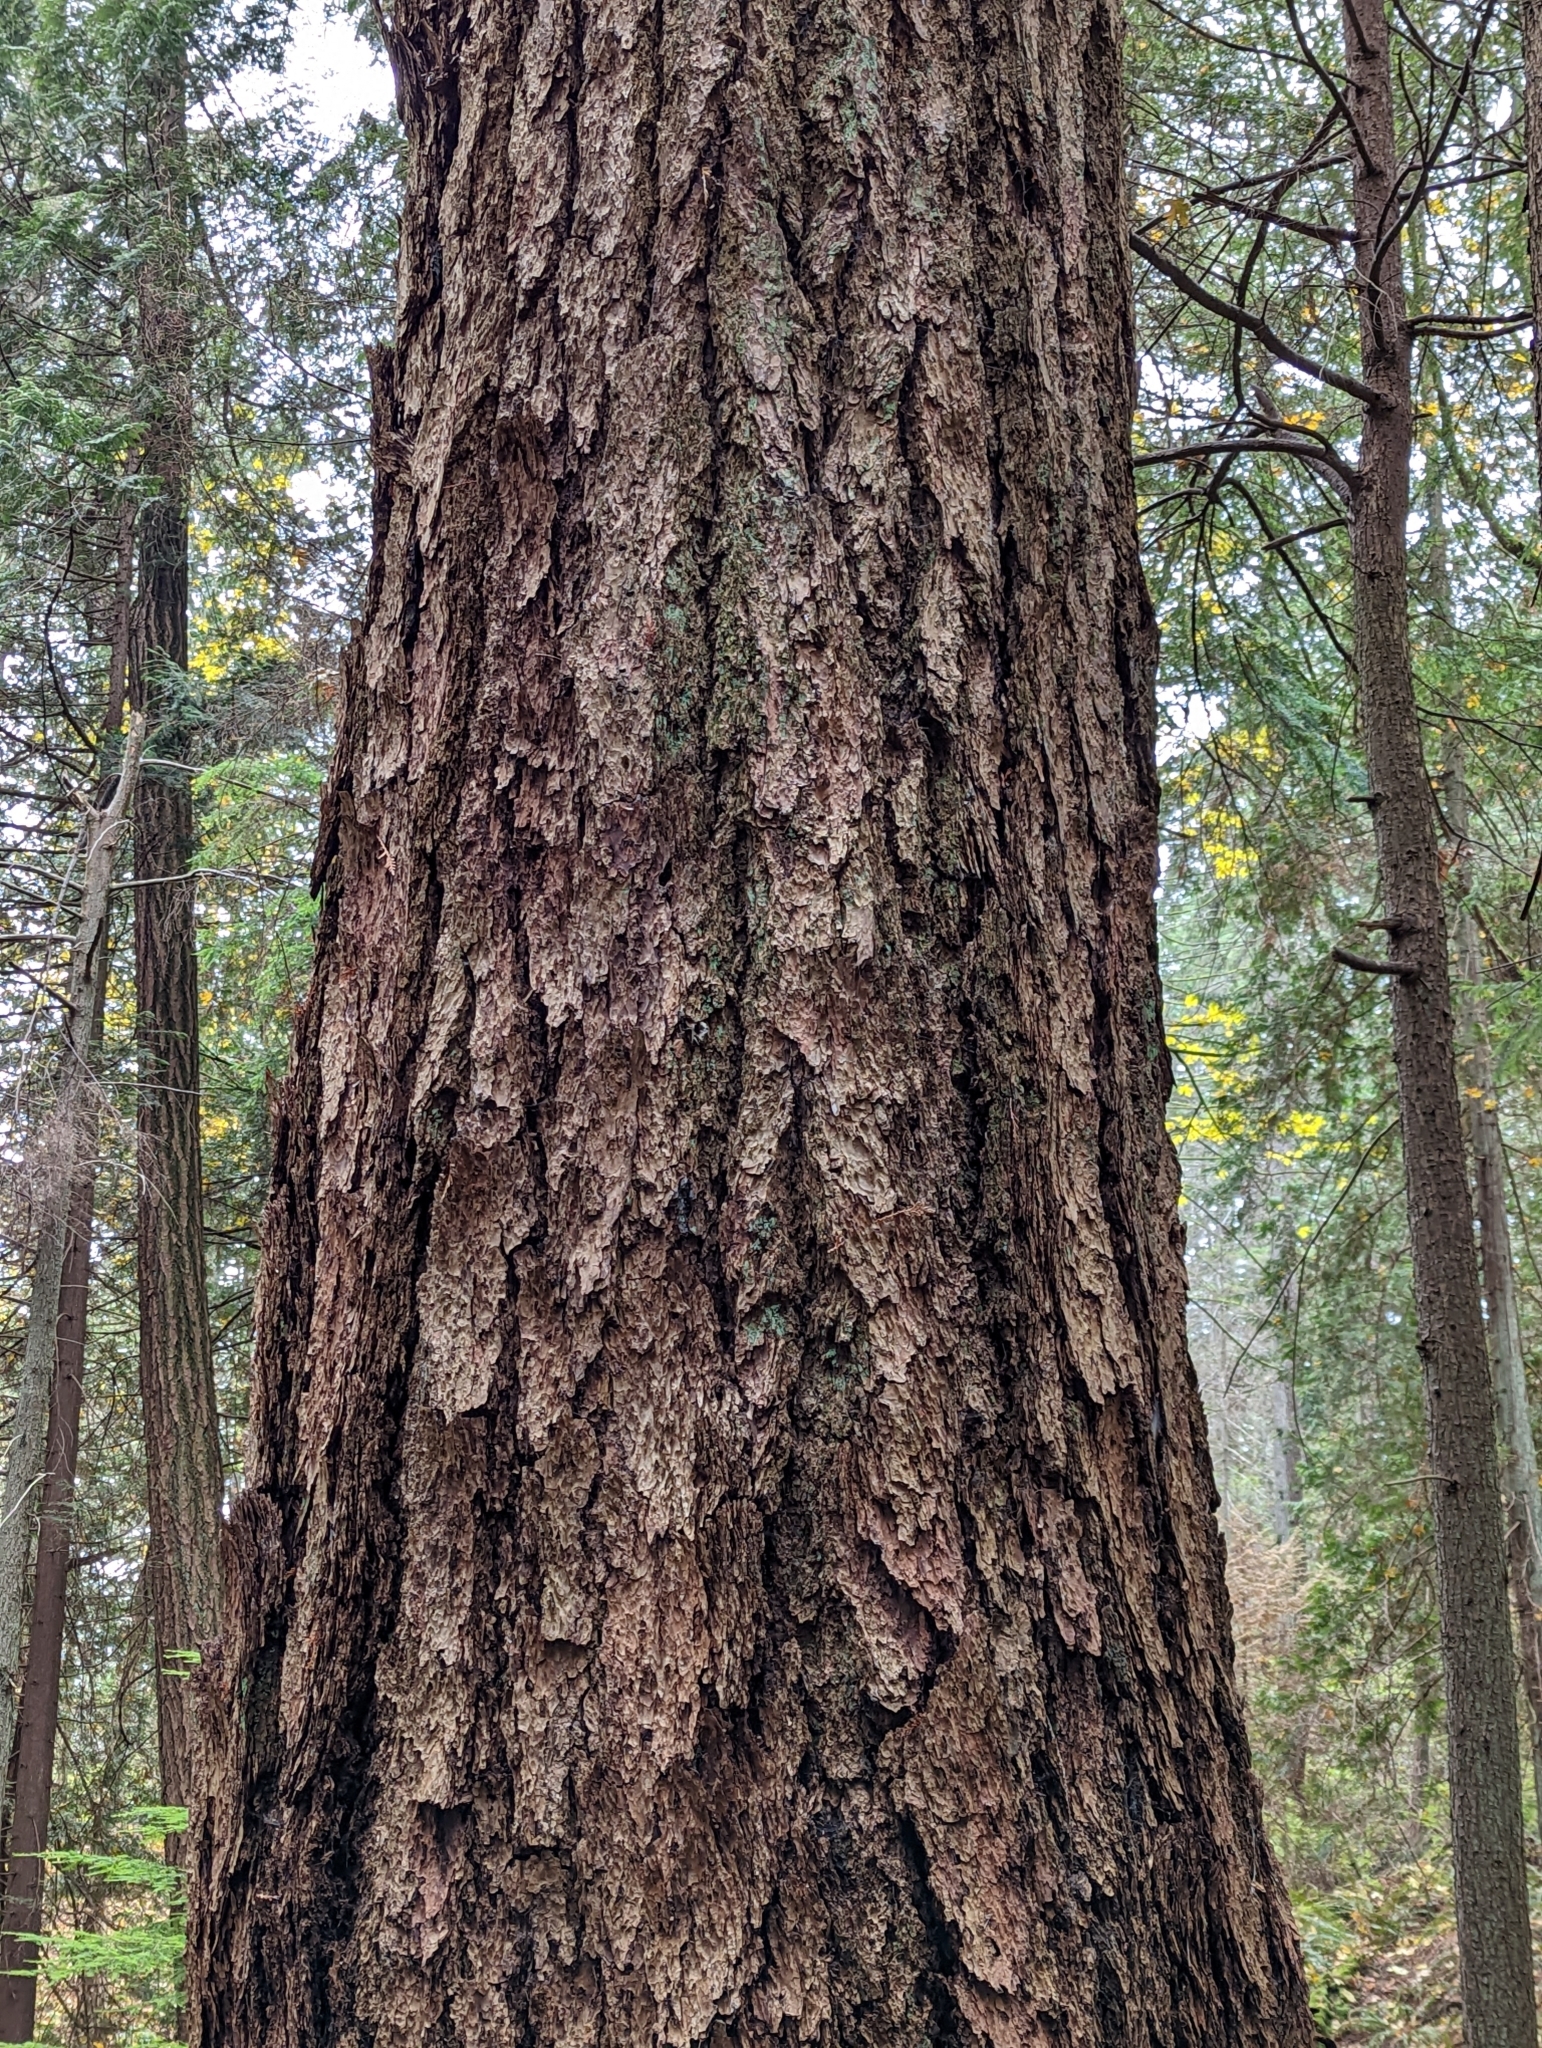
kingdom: Plantae
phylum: Tracheophyta
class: Pinopsida
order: Pinales
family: Pinaceae
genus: Pseudotsuga
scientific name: Pseudotsuga menziesii
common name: Douglas fir
